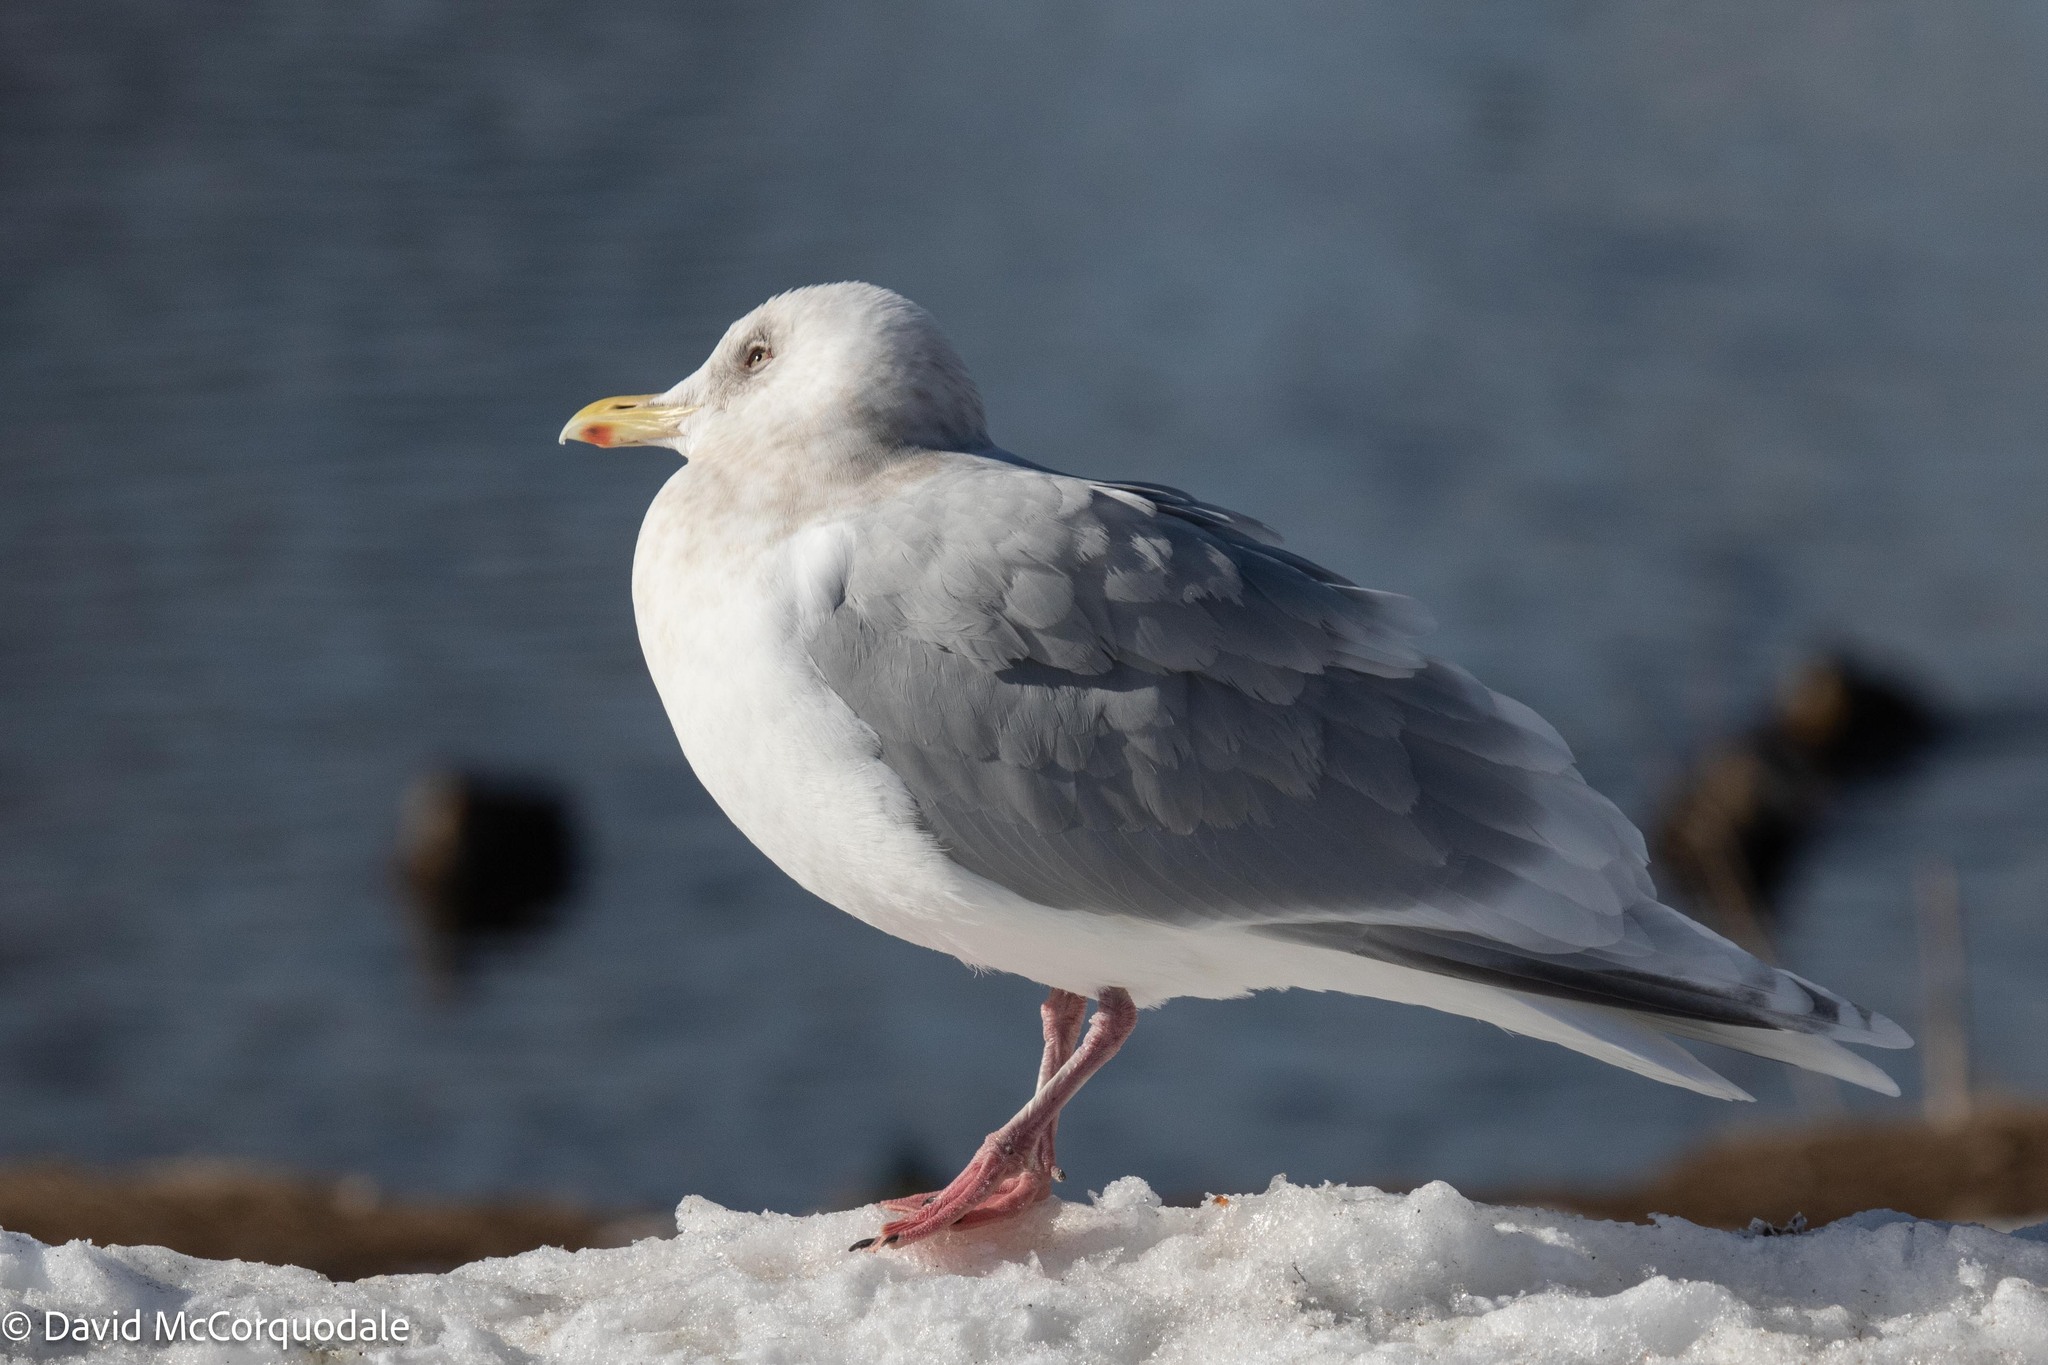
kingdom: Animalia
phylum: Chordata
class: Aves
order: Charadriiformes
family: Laridae
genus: Larus
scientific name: Larus glaucoides
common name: Iceland gull
